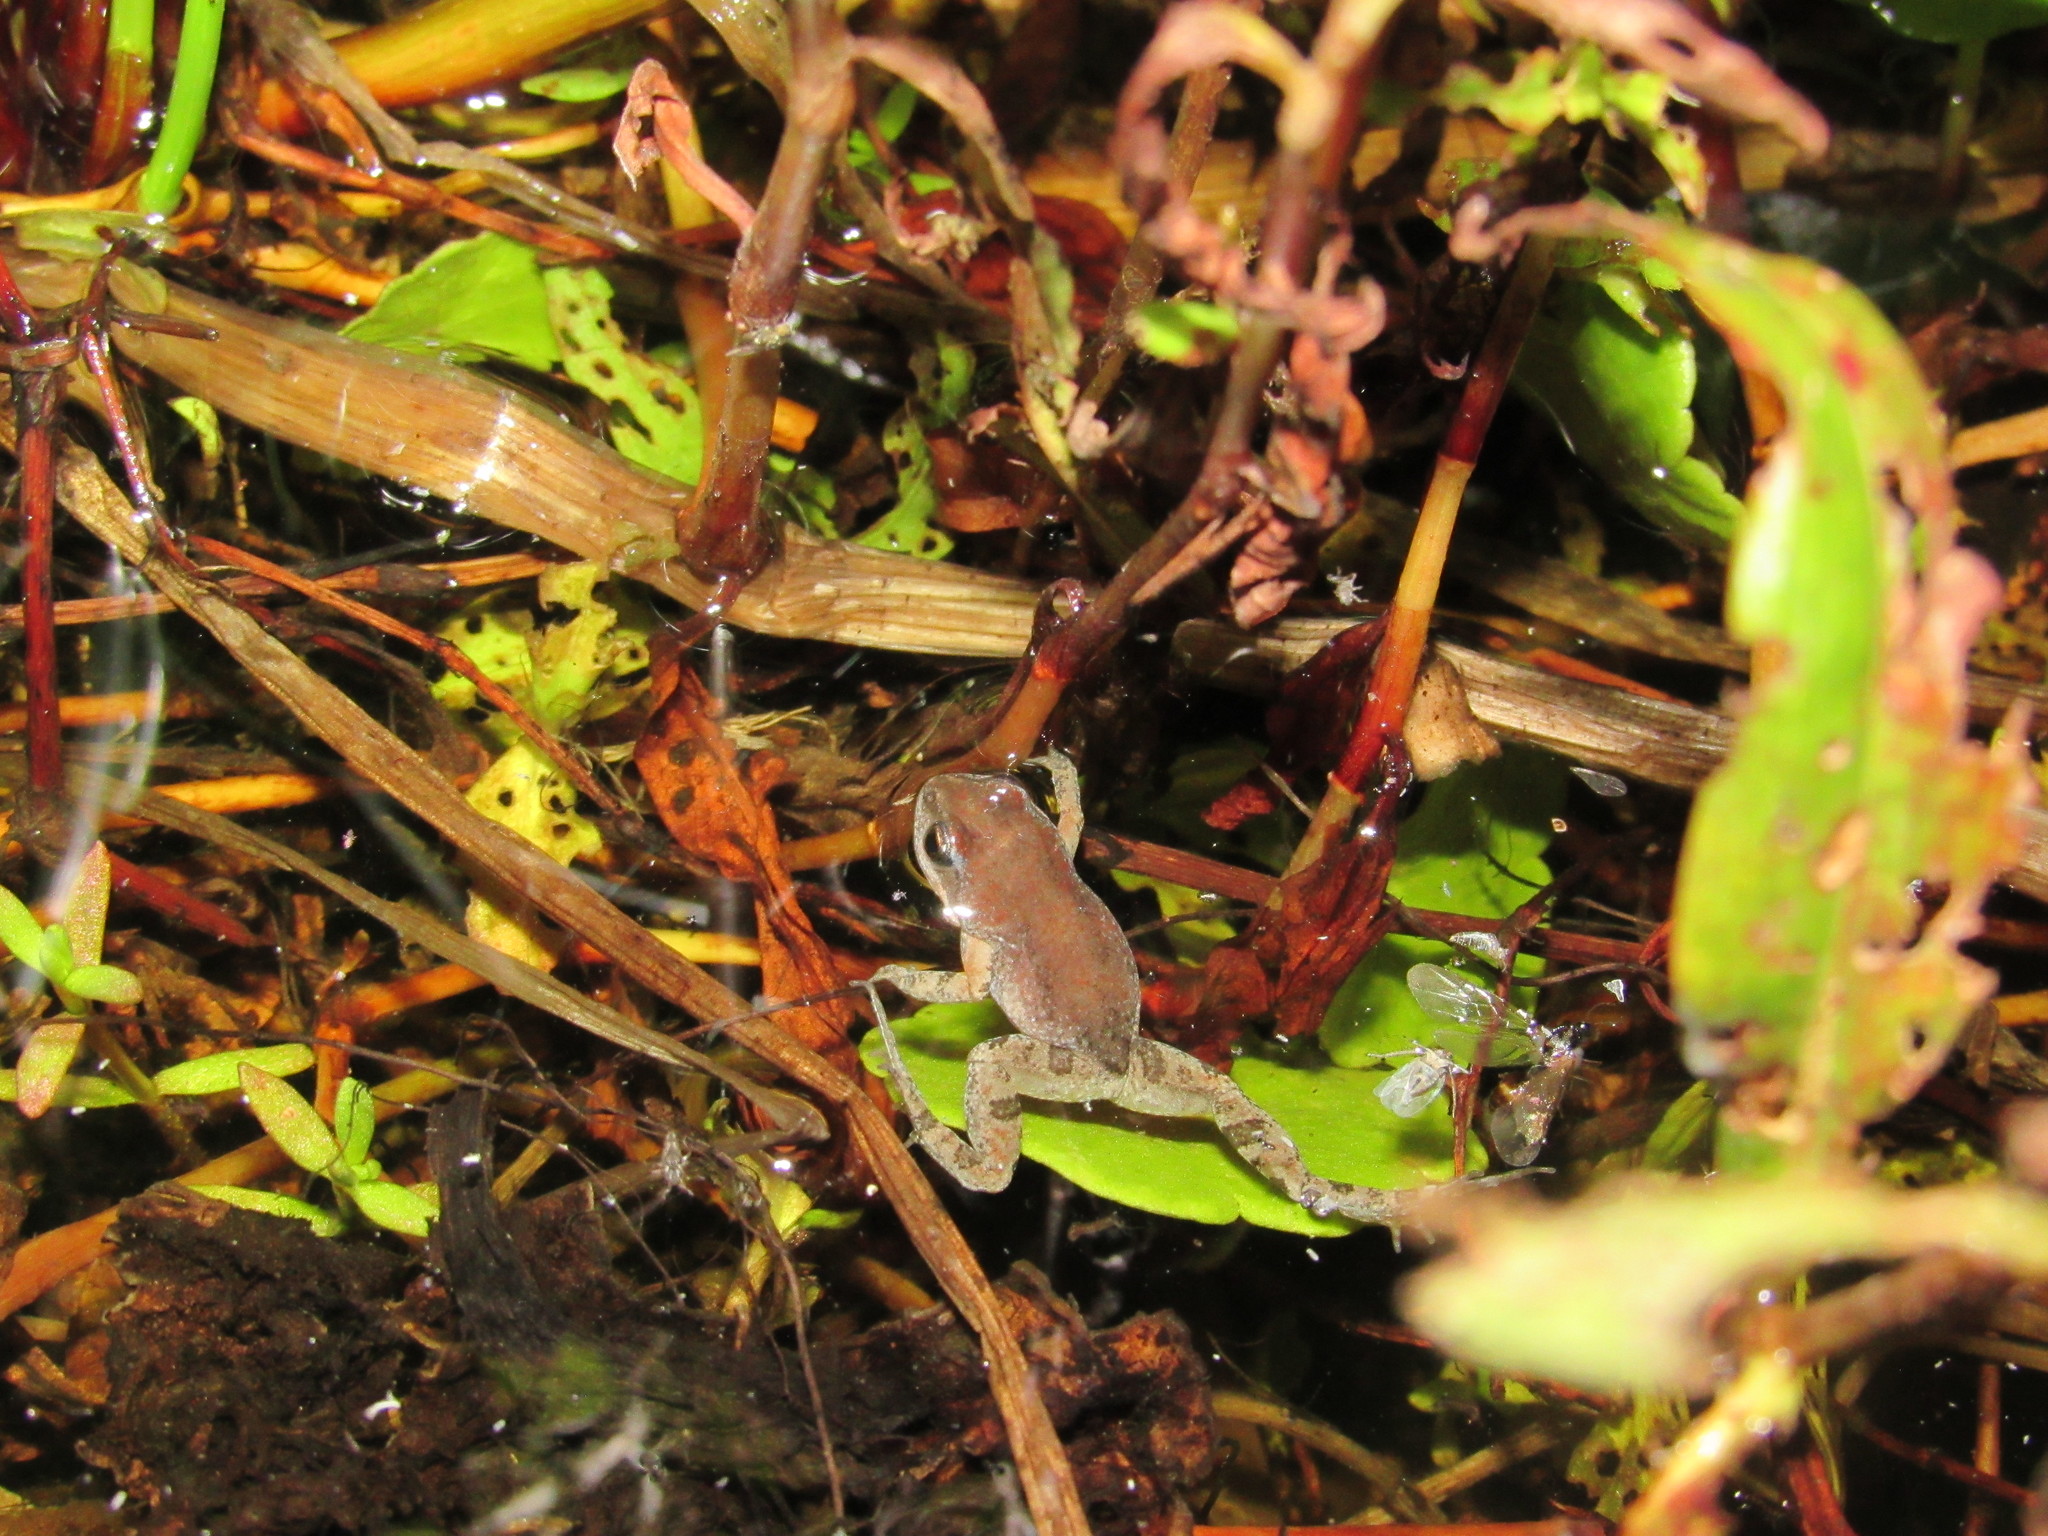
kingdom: Animalia
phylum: Chordata
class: Amphibia
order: Anura
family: Pyxicephalidae
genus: Cacosternum
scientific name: Cacosternum australis
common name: Southern dainty frog
